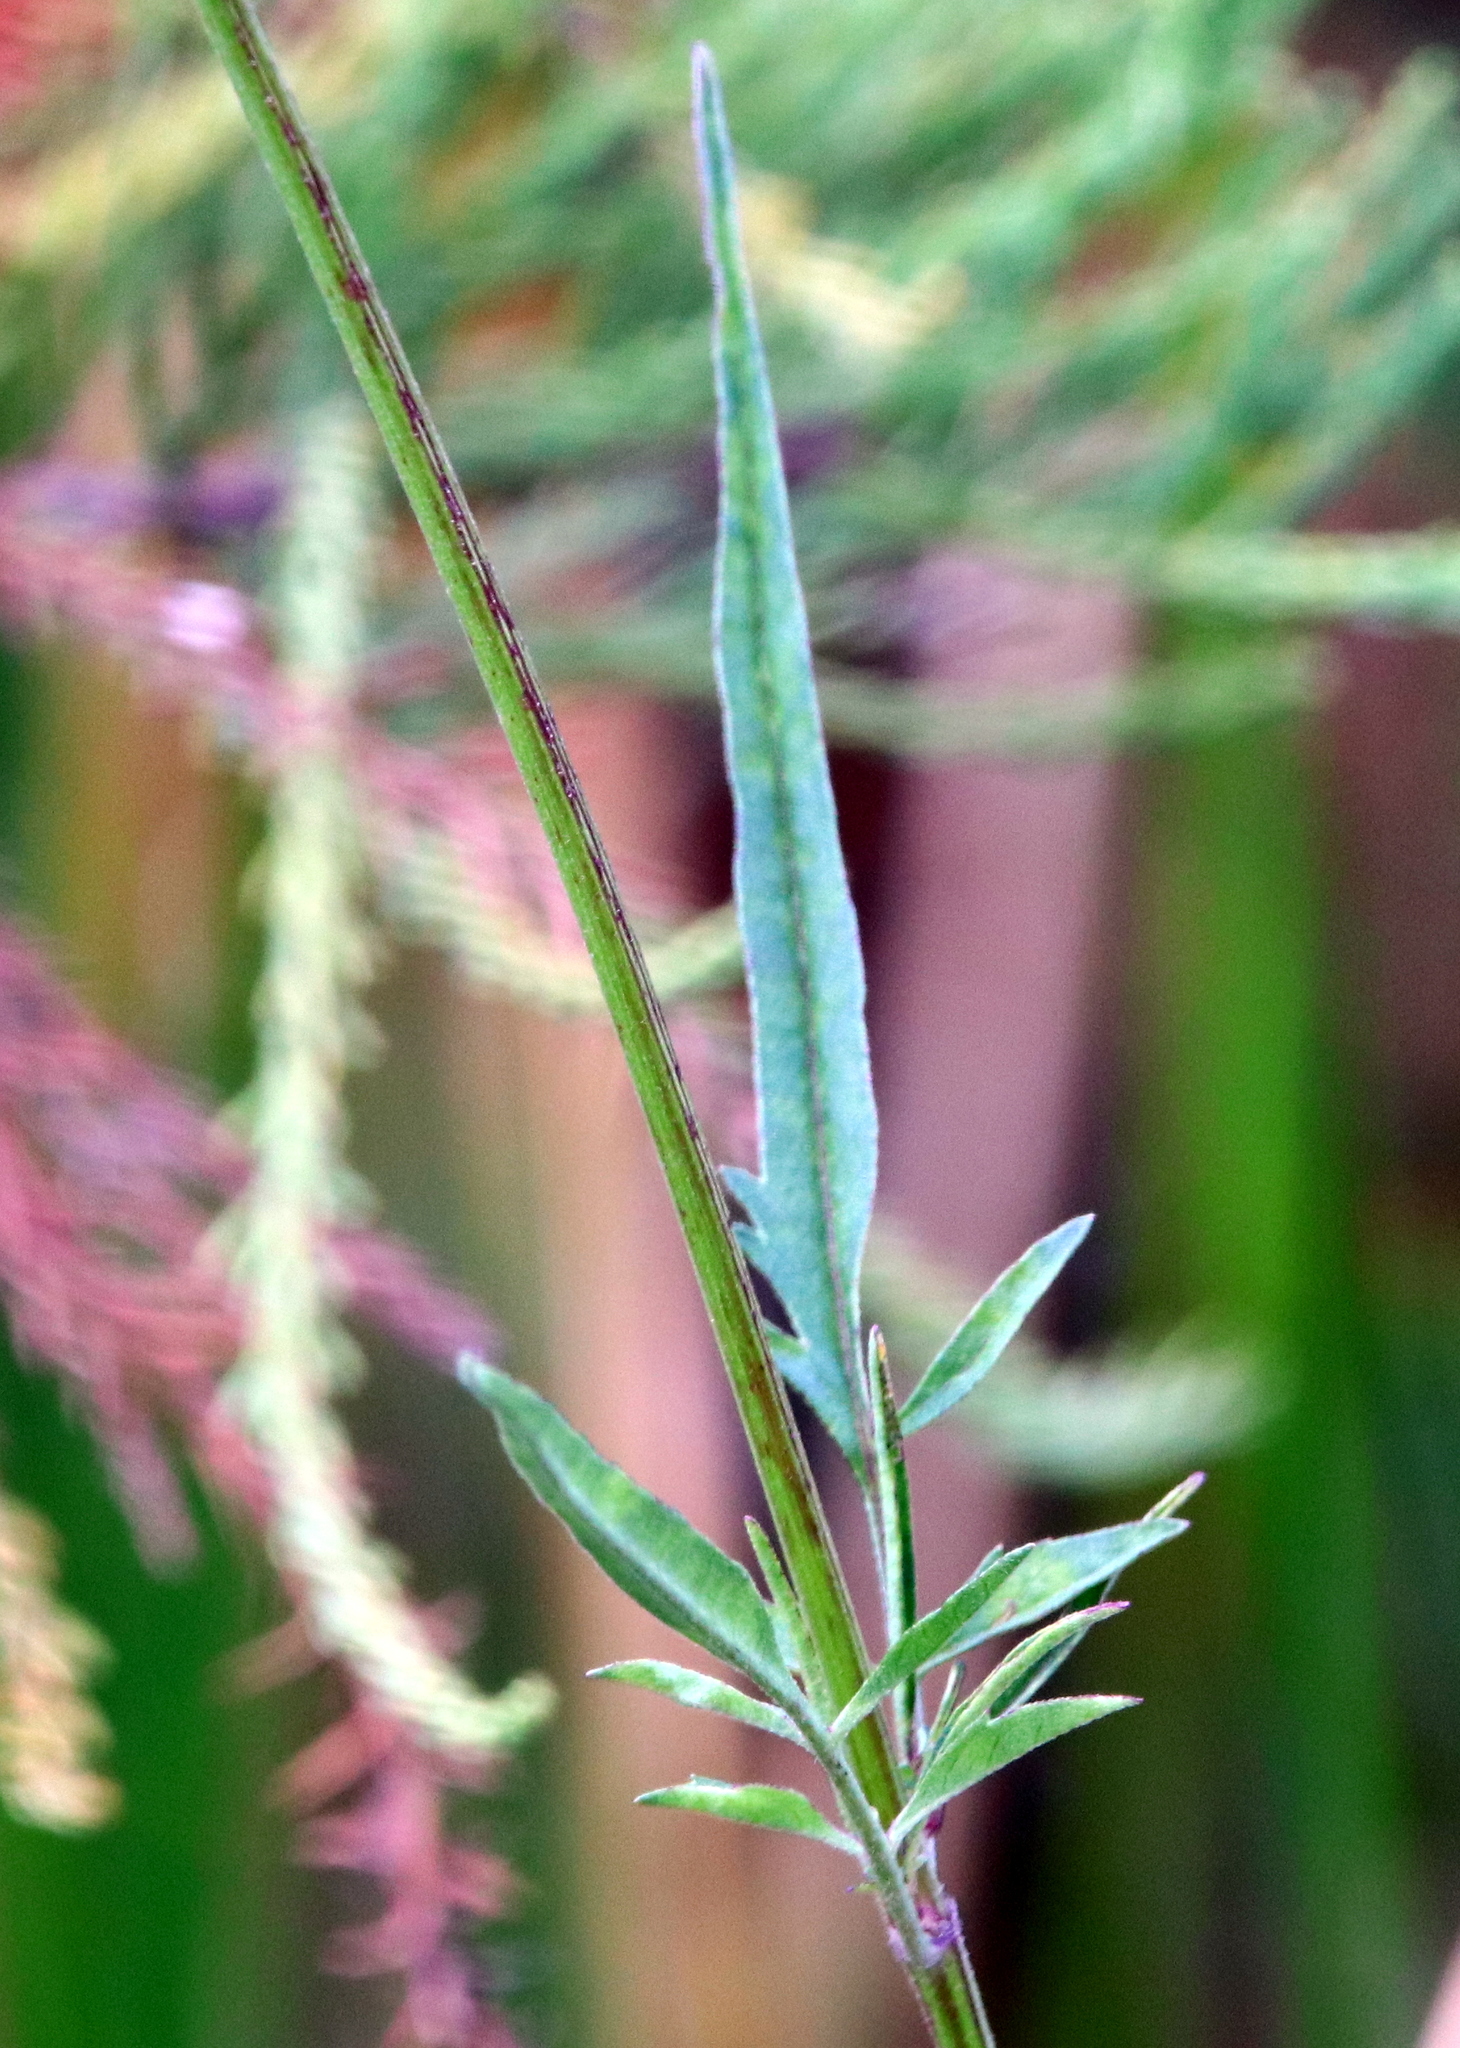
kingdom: Plantae
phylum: Tracheophyta
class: Magnoliopsida
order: Asterales
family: Asteraceae
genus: Bidens
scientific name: Bidens mitis
